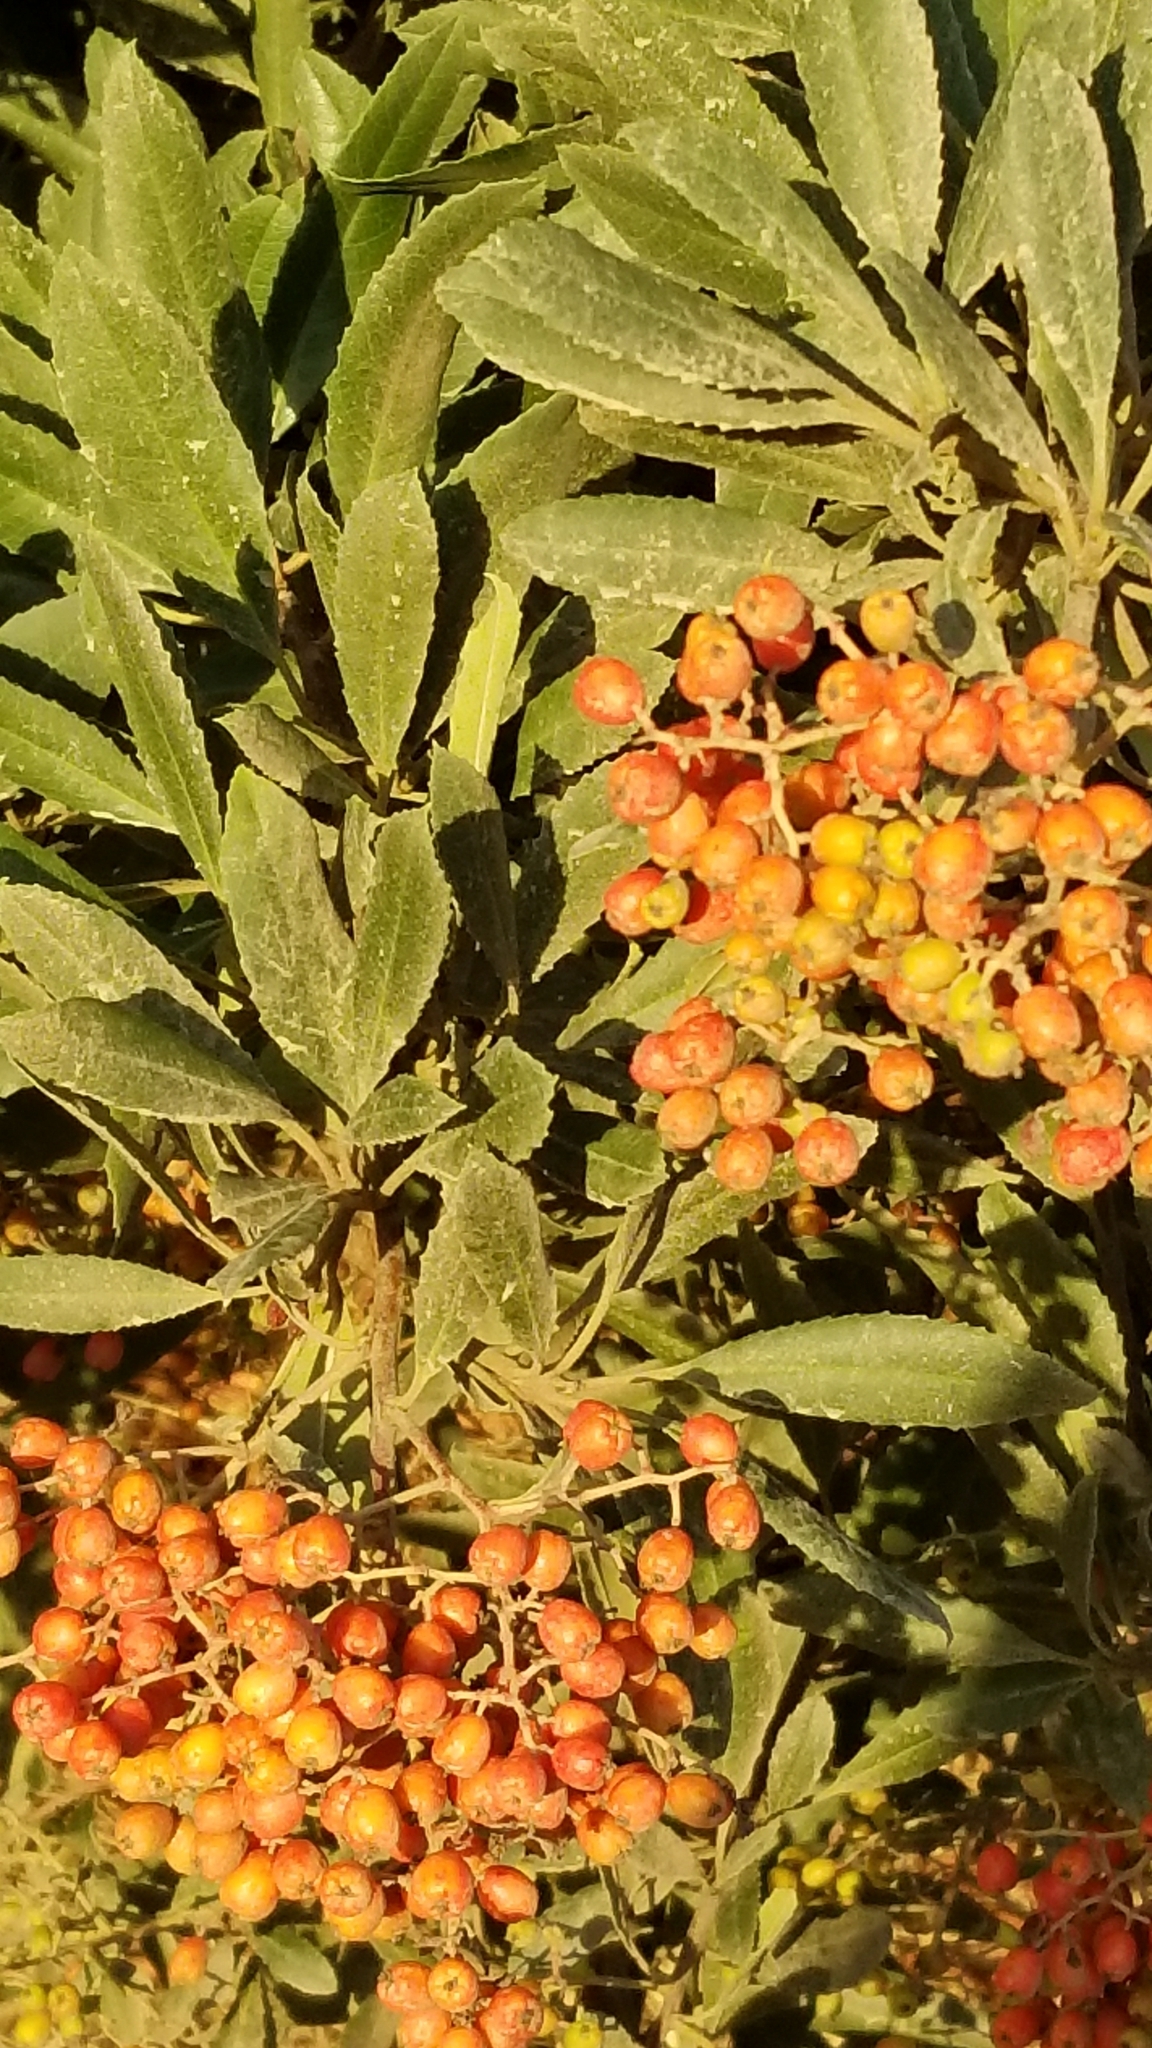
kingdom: Plantae
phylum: Tracheophyta
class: Magnoliopsida
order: Rosales
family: Rosaceae
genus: Heteromeles
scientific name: Heteromeles arbutifolia
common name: California-holly
